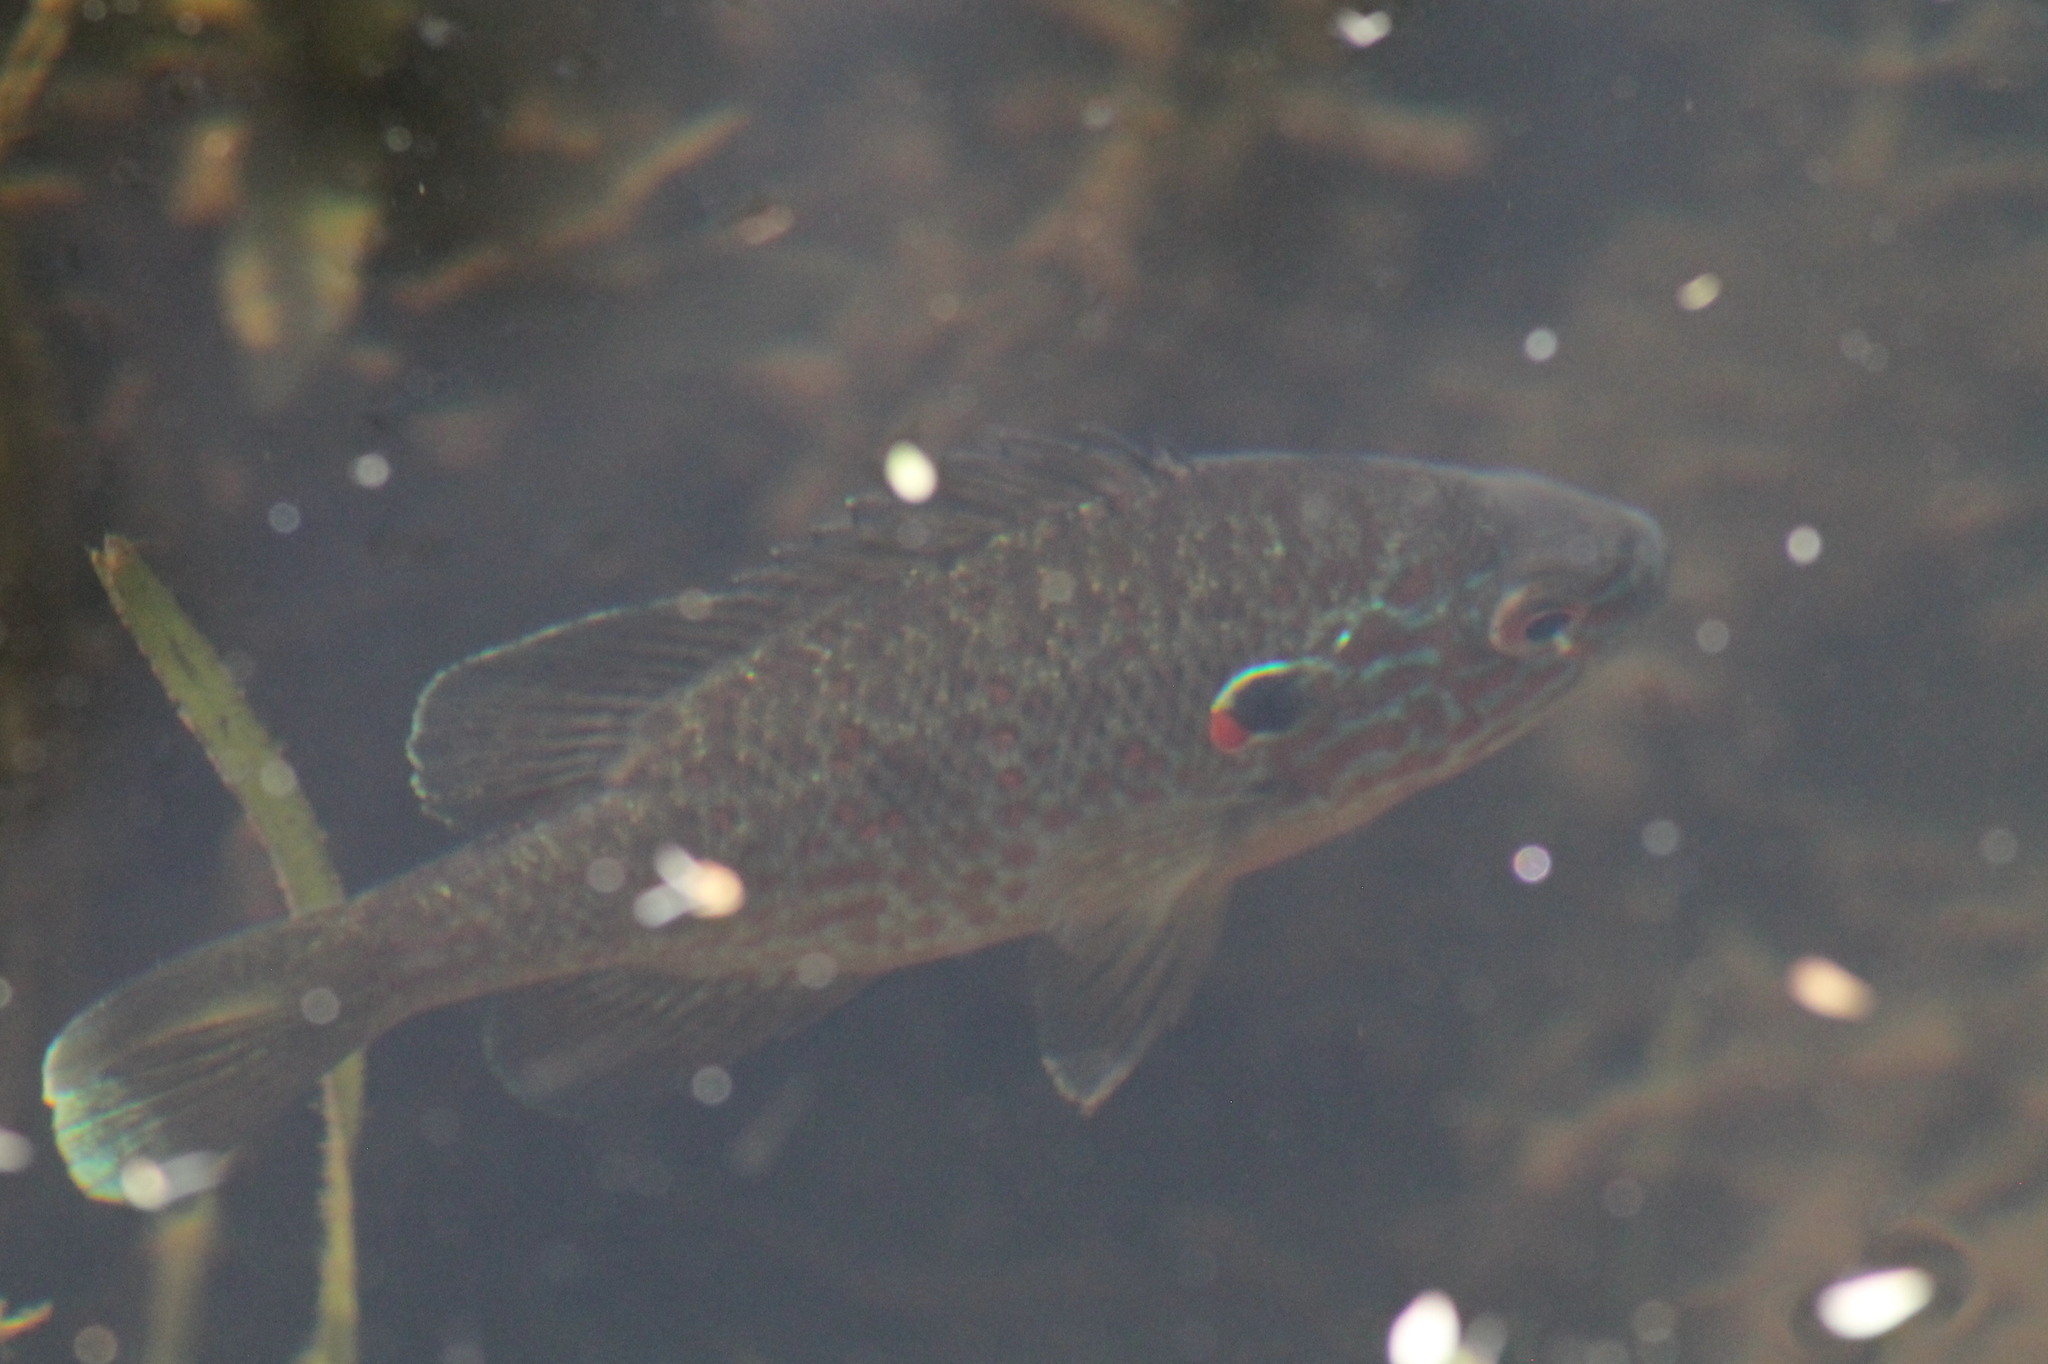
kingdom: Animalia
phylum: Chordata
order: Perciformes
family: Centrarchidae
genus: Lepomis
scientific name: Lepomis gibbosus
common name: Pumpkinseed
